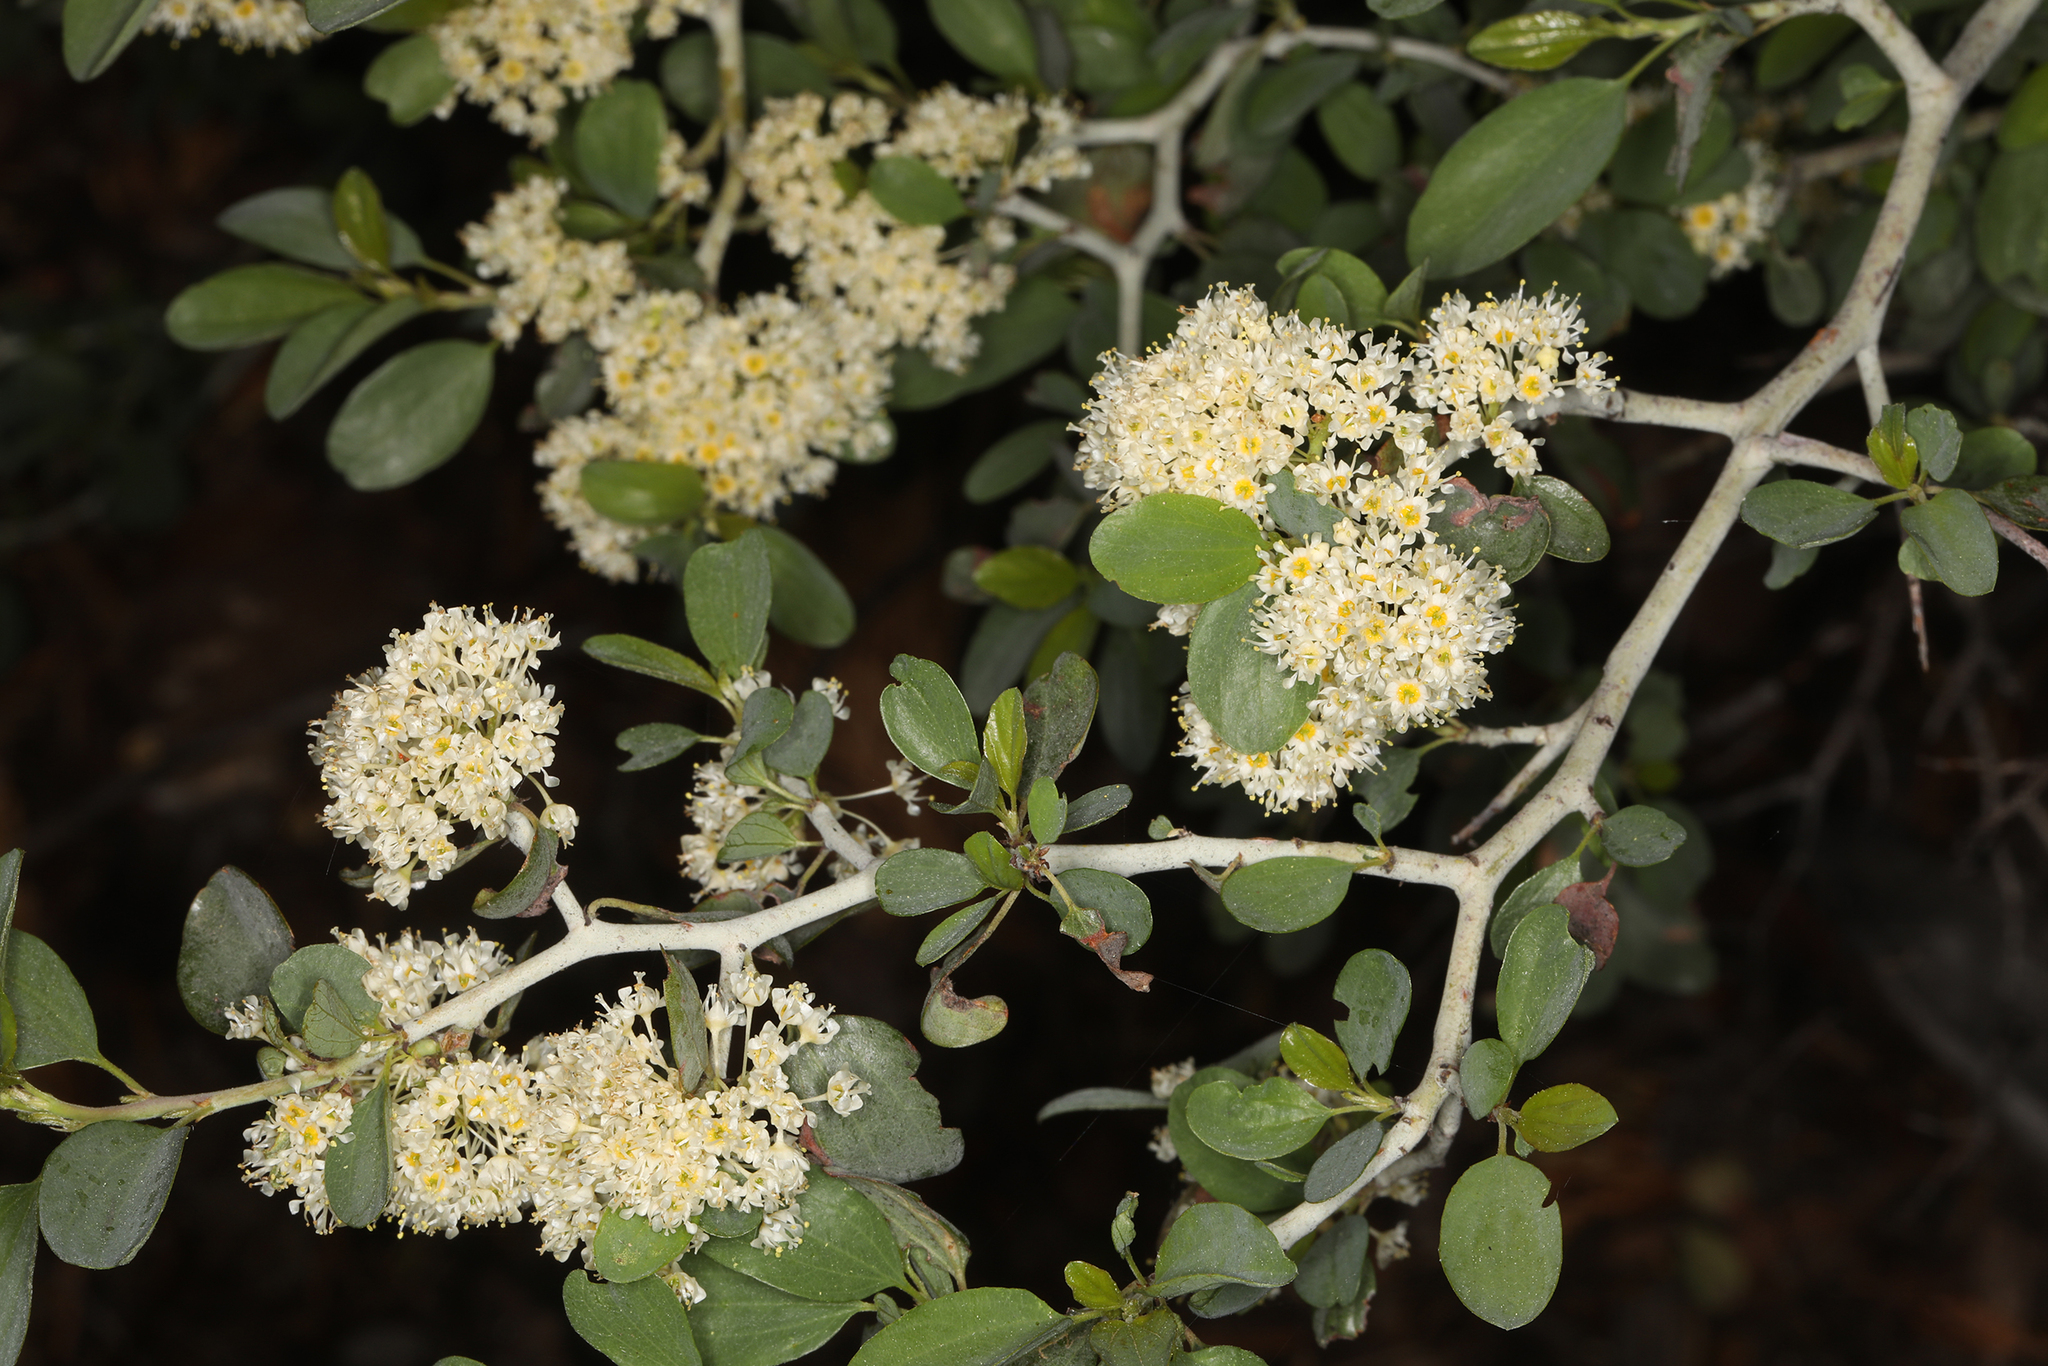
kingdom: Plantae
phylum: Tracheophyta
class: Magnoliopsida
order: Rosales
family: Rhamnaceae
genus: Ceanothus
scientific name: Ceanothus cordulatus
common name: Mountain whitethorn
